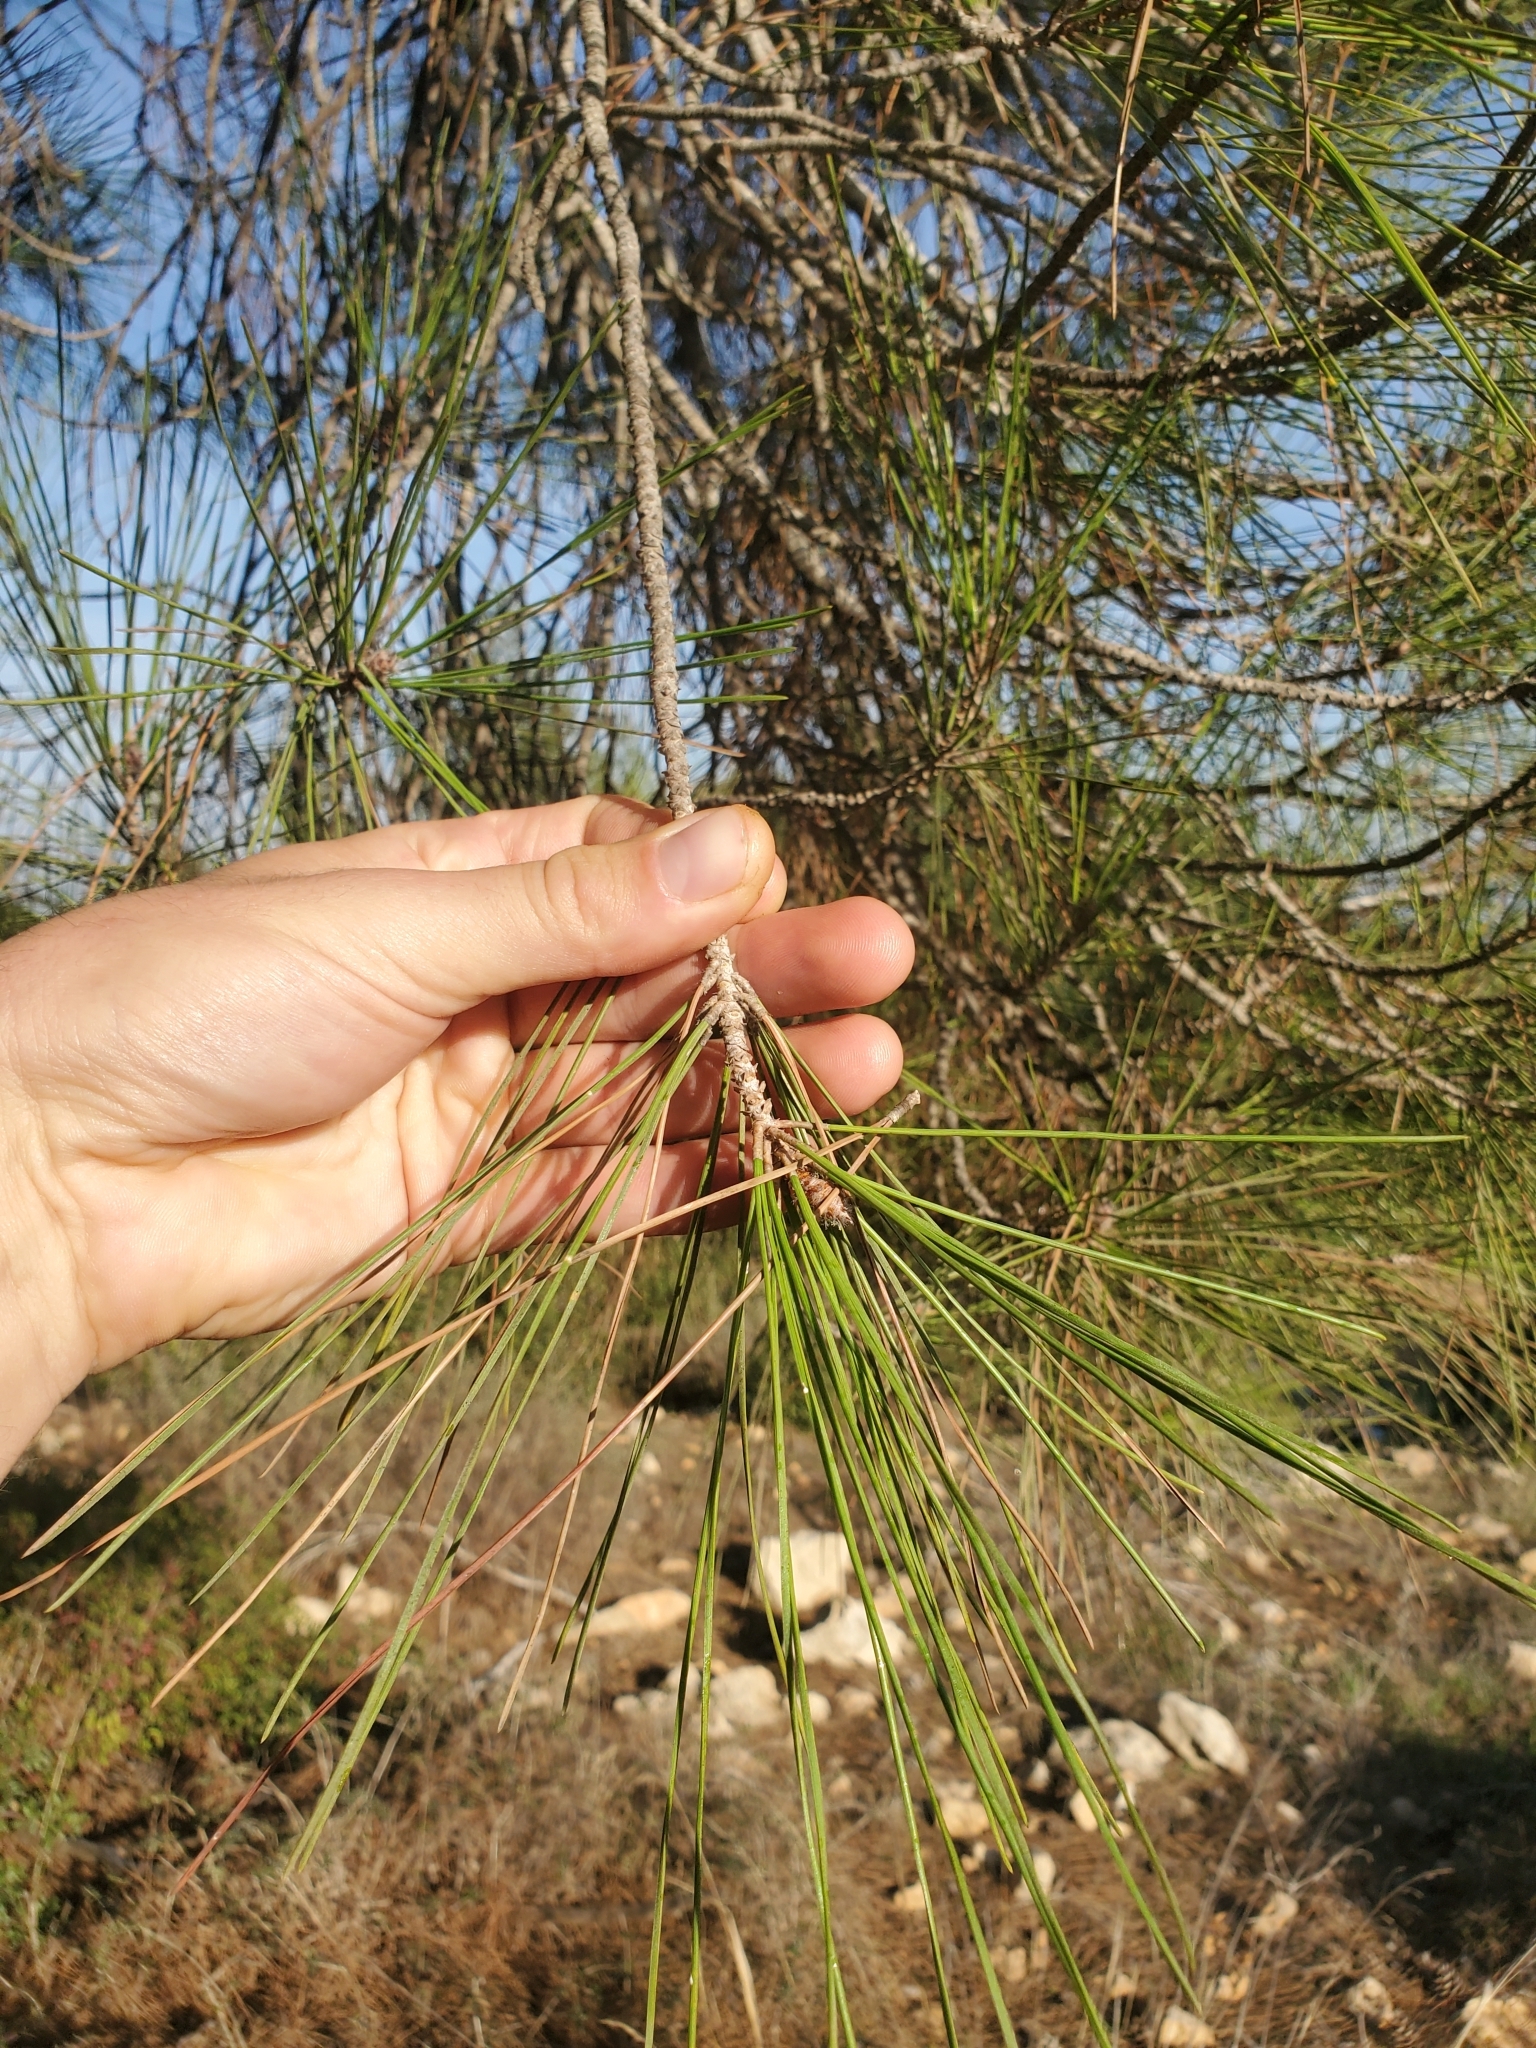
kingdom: Plantae
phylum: Tracheophyta
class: Pinopsida
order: Pinales
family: Pinaceae
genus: Pinus
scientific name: Pinus brutia
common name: Turkish pine
